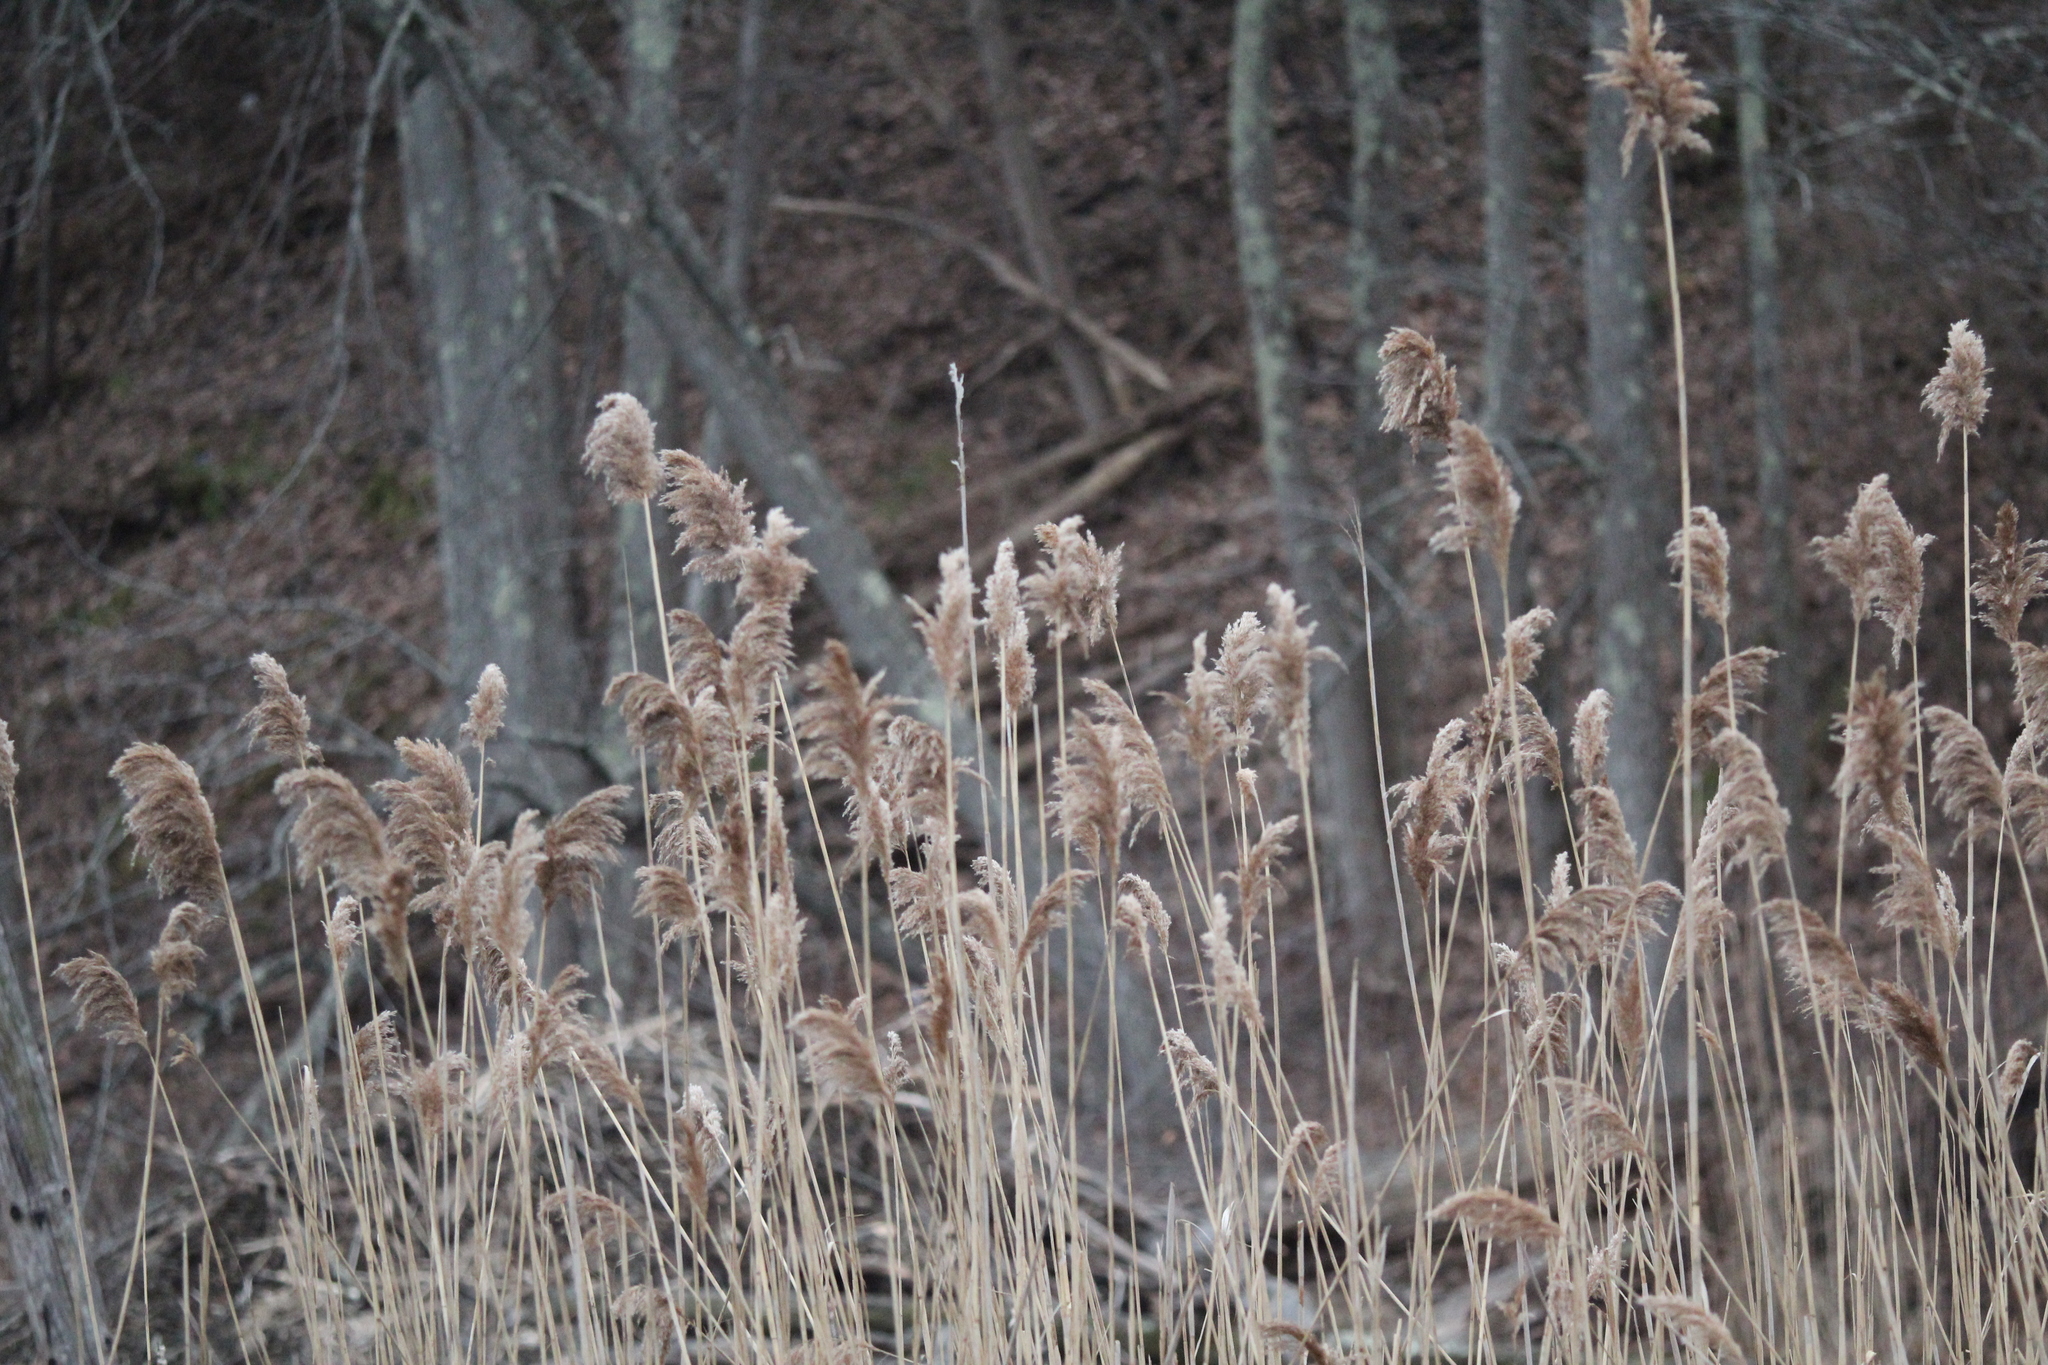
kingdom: Plantae
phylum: Tracheophyta
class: Liliopsida
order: Poales
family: Poaceae
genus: Phragmites
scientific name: Phragmites australis
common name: Common reed
